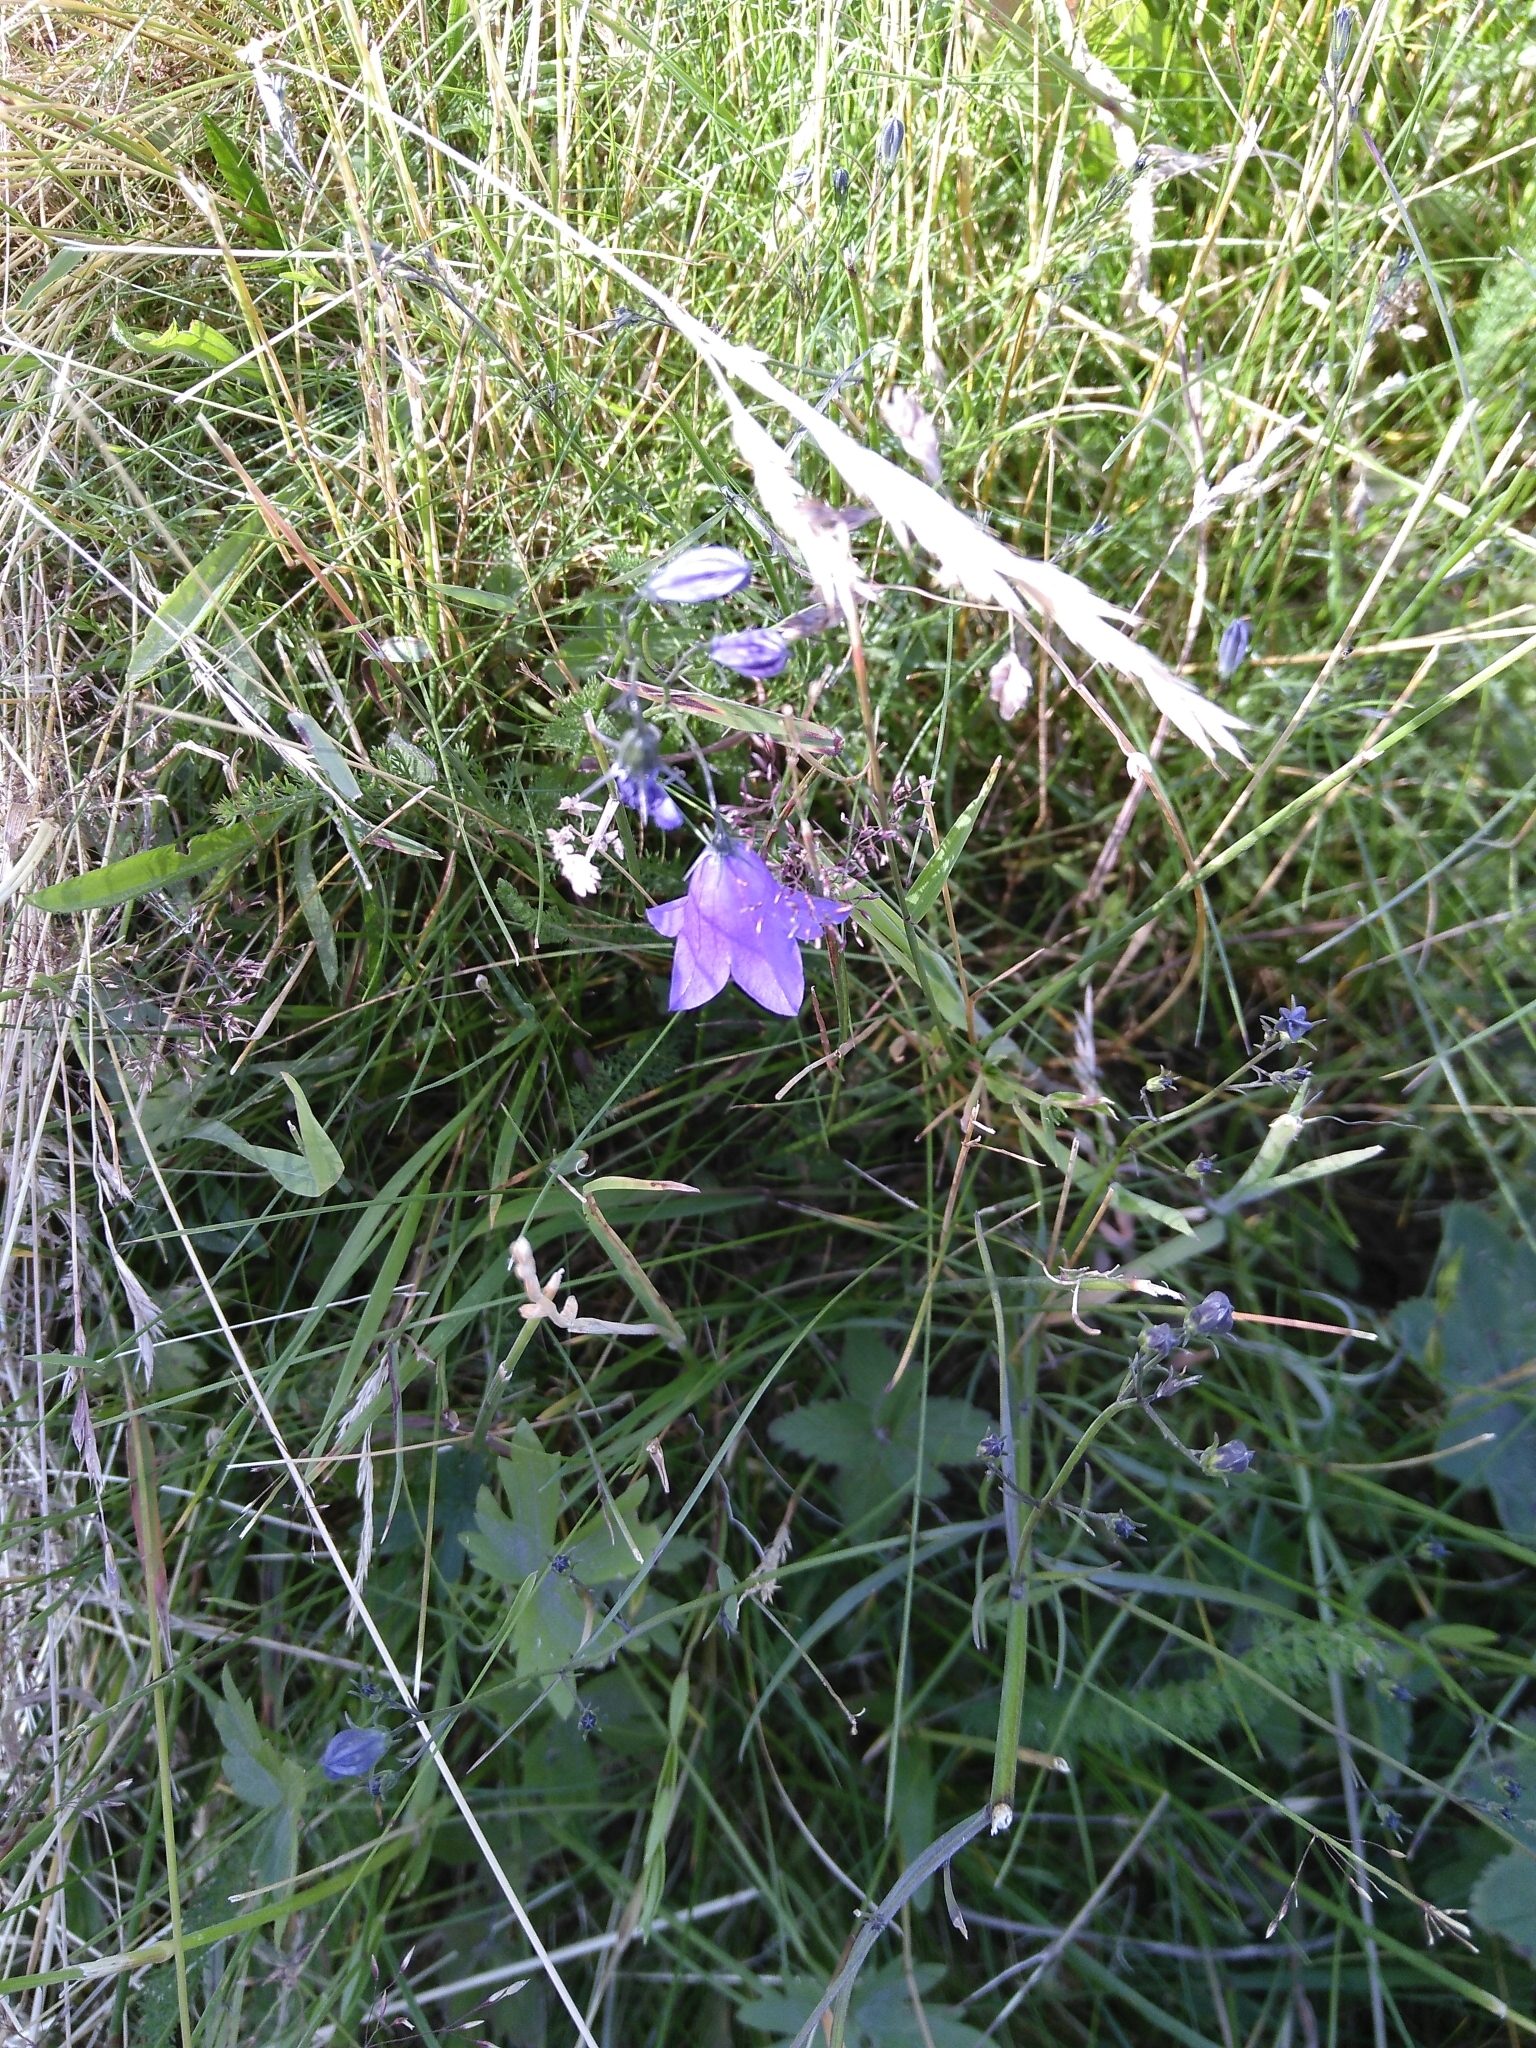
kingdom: Plantae
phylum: Tracheophyta
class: Magnoliopsida
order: Asterales
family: Campanulaceae
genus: Campanula
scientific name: Campanula rotundifolia
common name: Harebell
